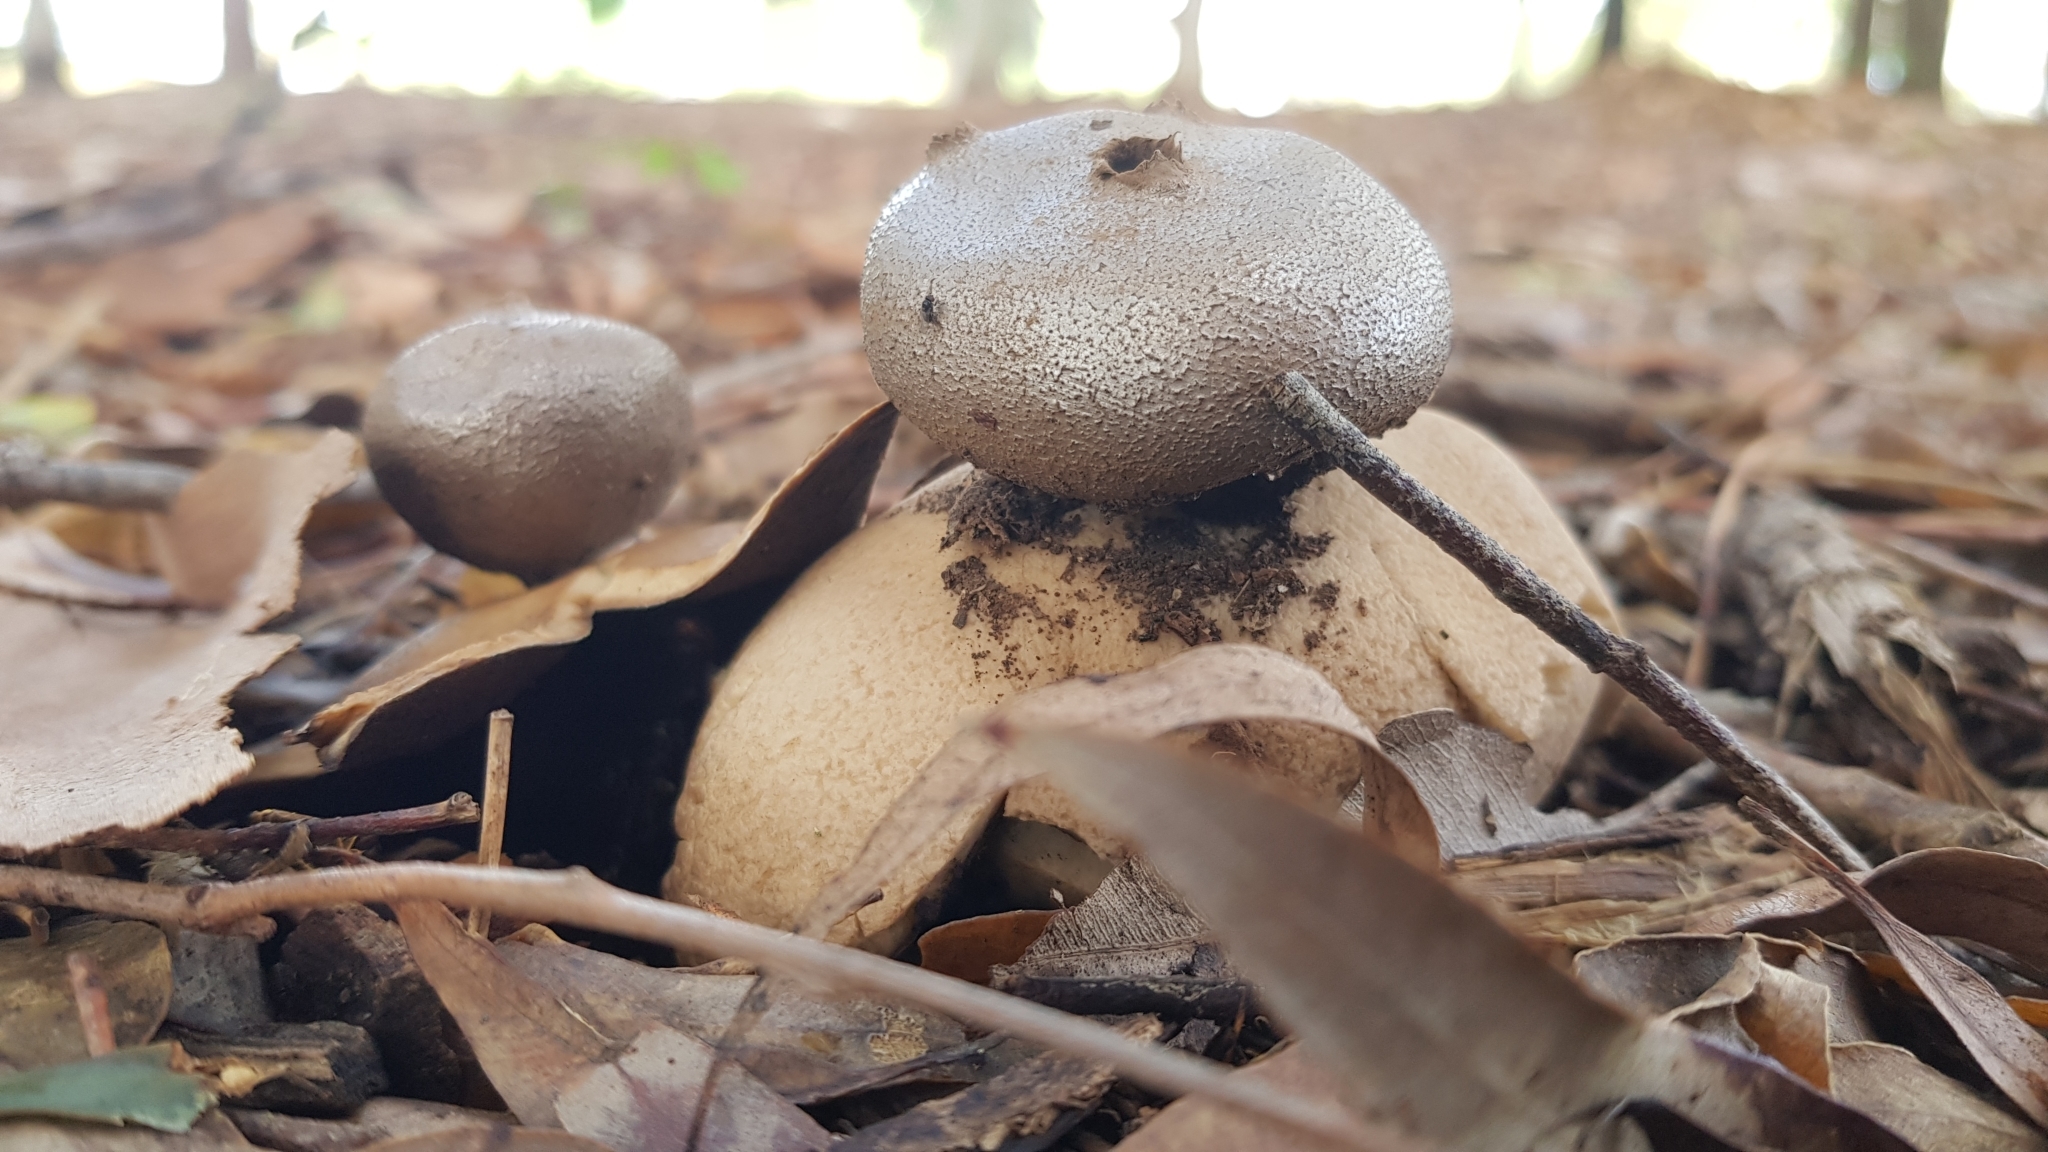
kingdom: Fungi
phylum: Basidiomycota
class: Agaricomycetes
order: Geastrales
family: Geastraceae
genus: Myriostoma
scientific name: Myriostoma australianum
